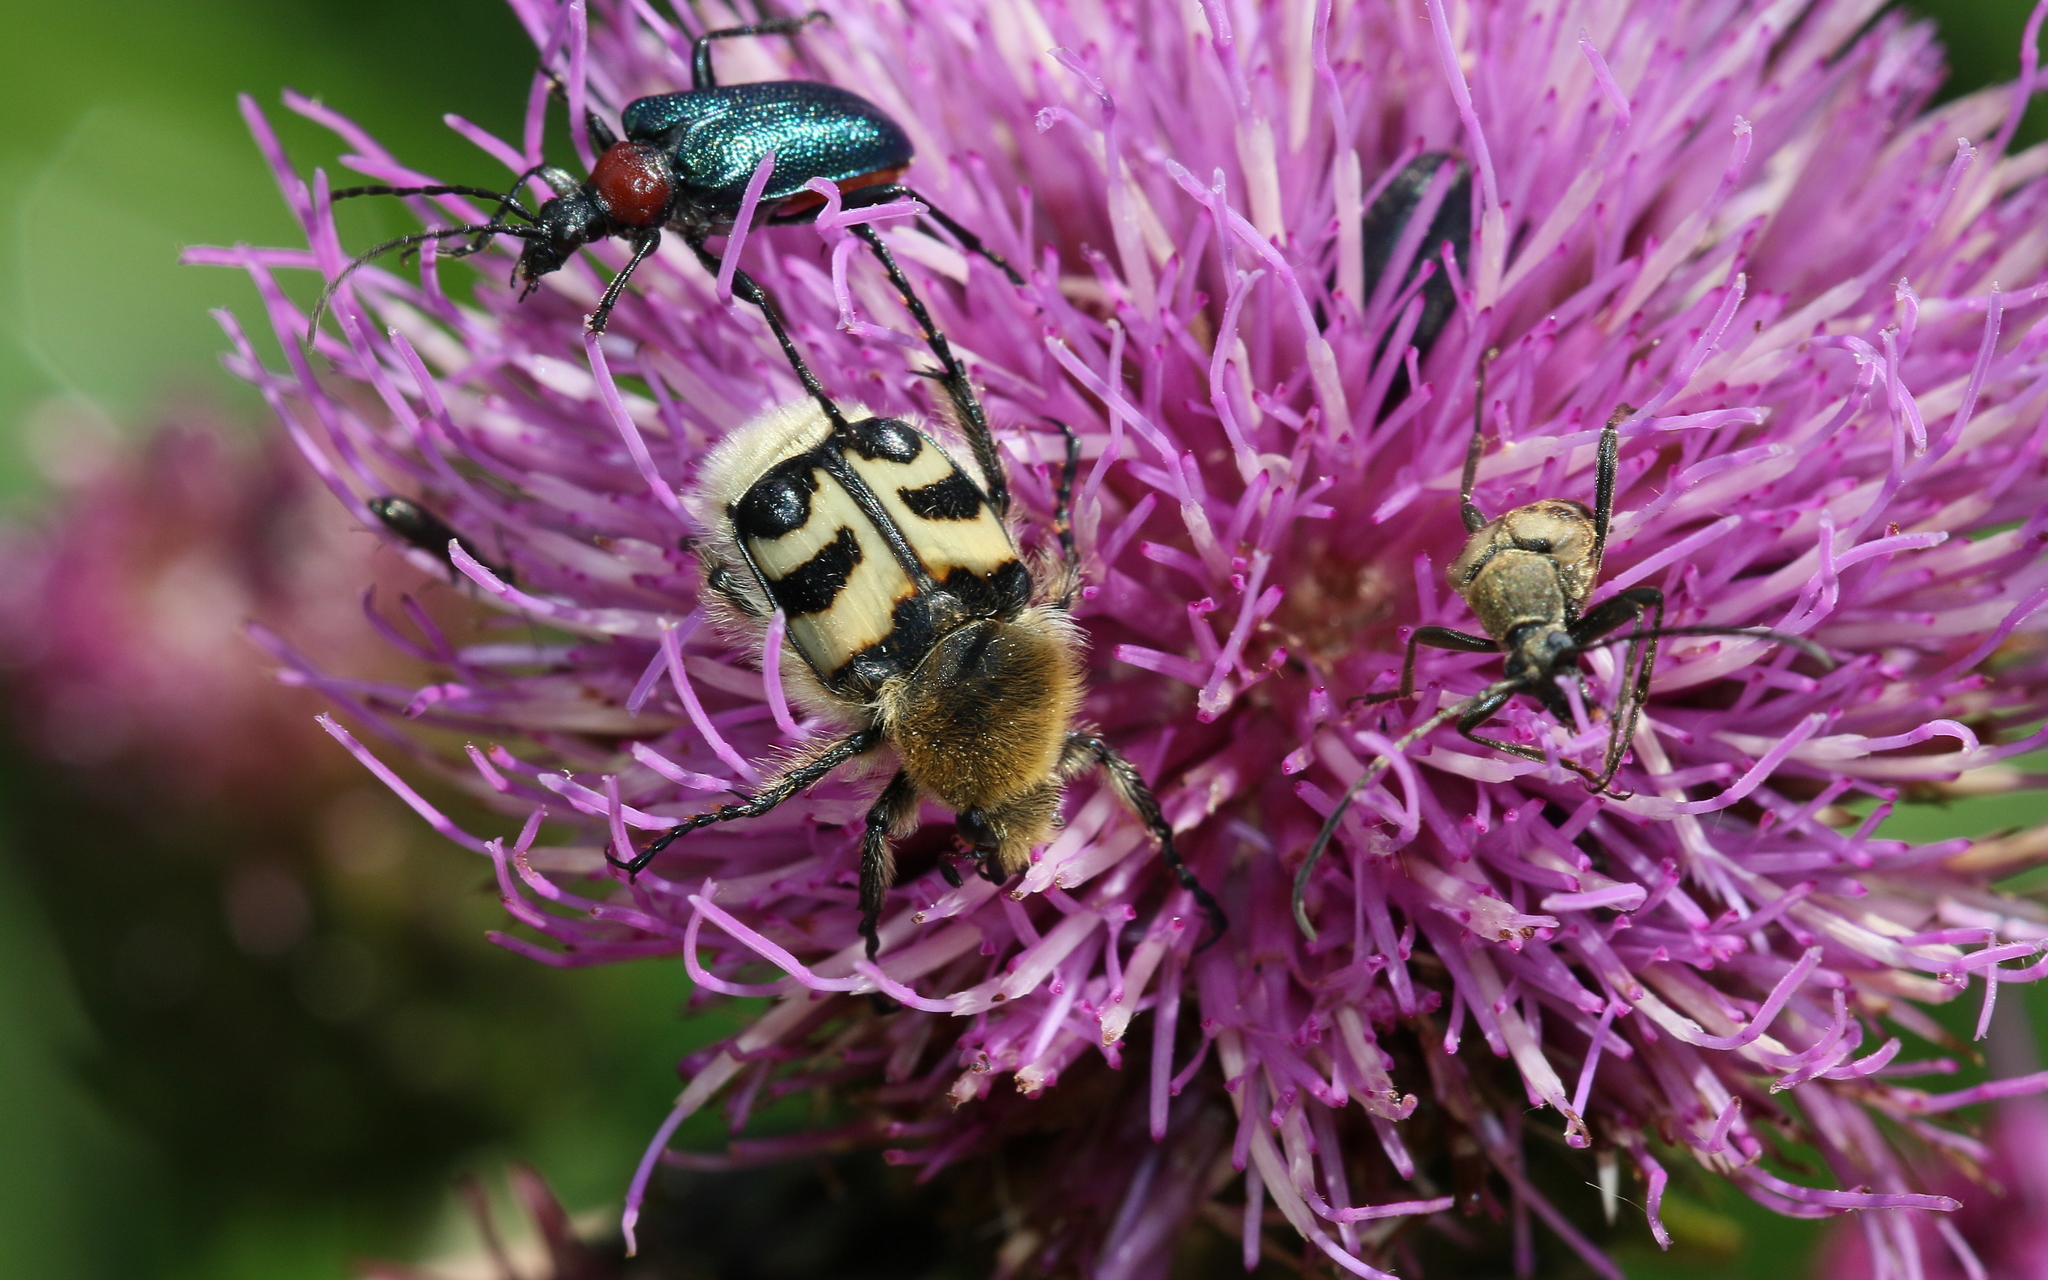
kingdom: Animalia
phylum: Arthropoda
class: Insecta
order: Coleoptera
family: Scarabaeidae
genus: Trichius
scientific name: Trichius fasciatus
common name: Bee beetle
